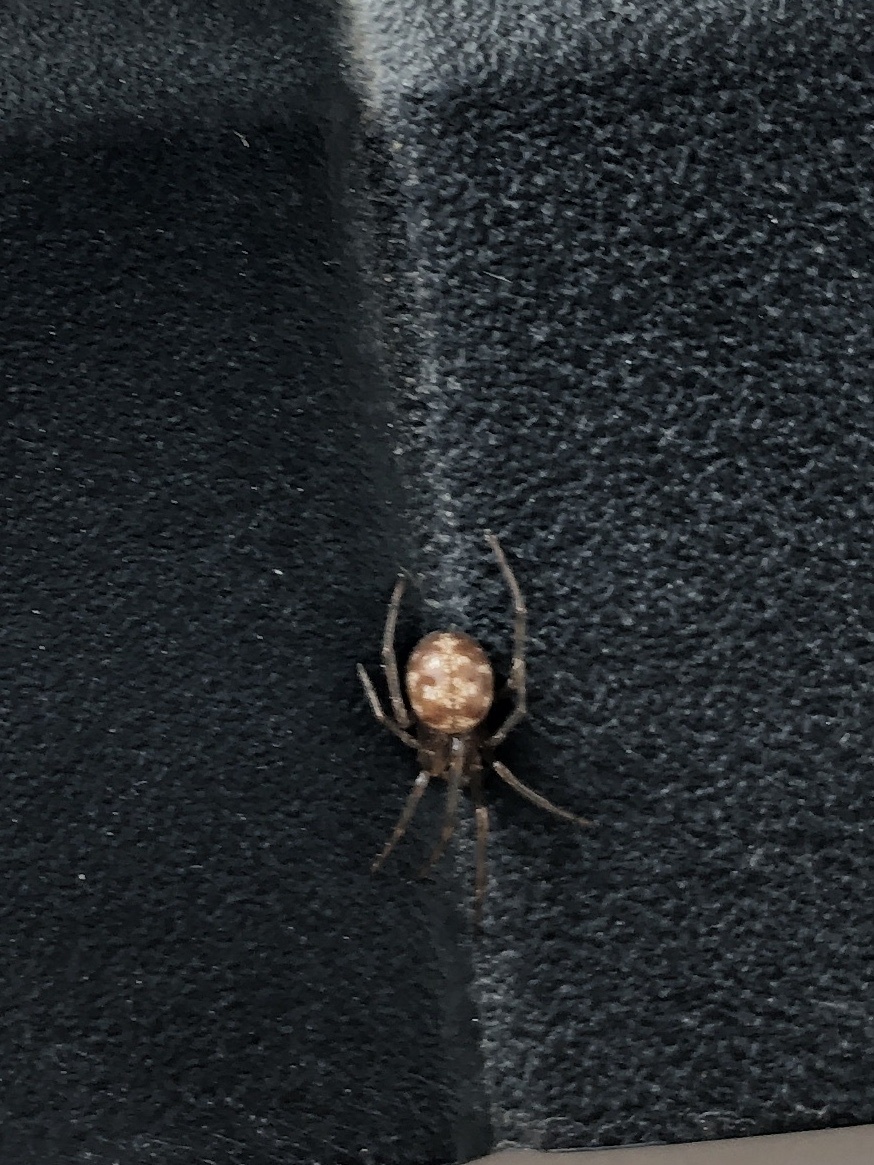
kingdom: Animalia
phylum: Arthropoda
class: Arachnida
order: Araneae
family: Theridiidae
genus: Steatoda
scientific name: Steatoda triangulosa
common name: Triangulate bud spider
